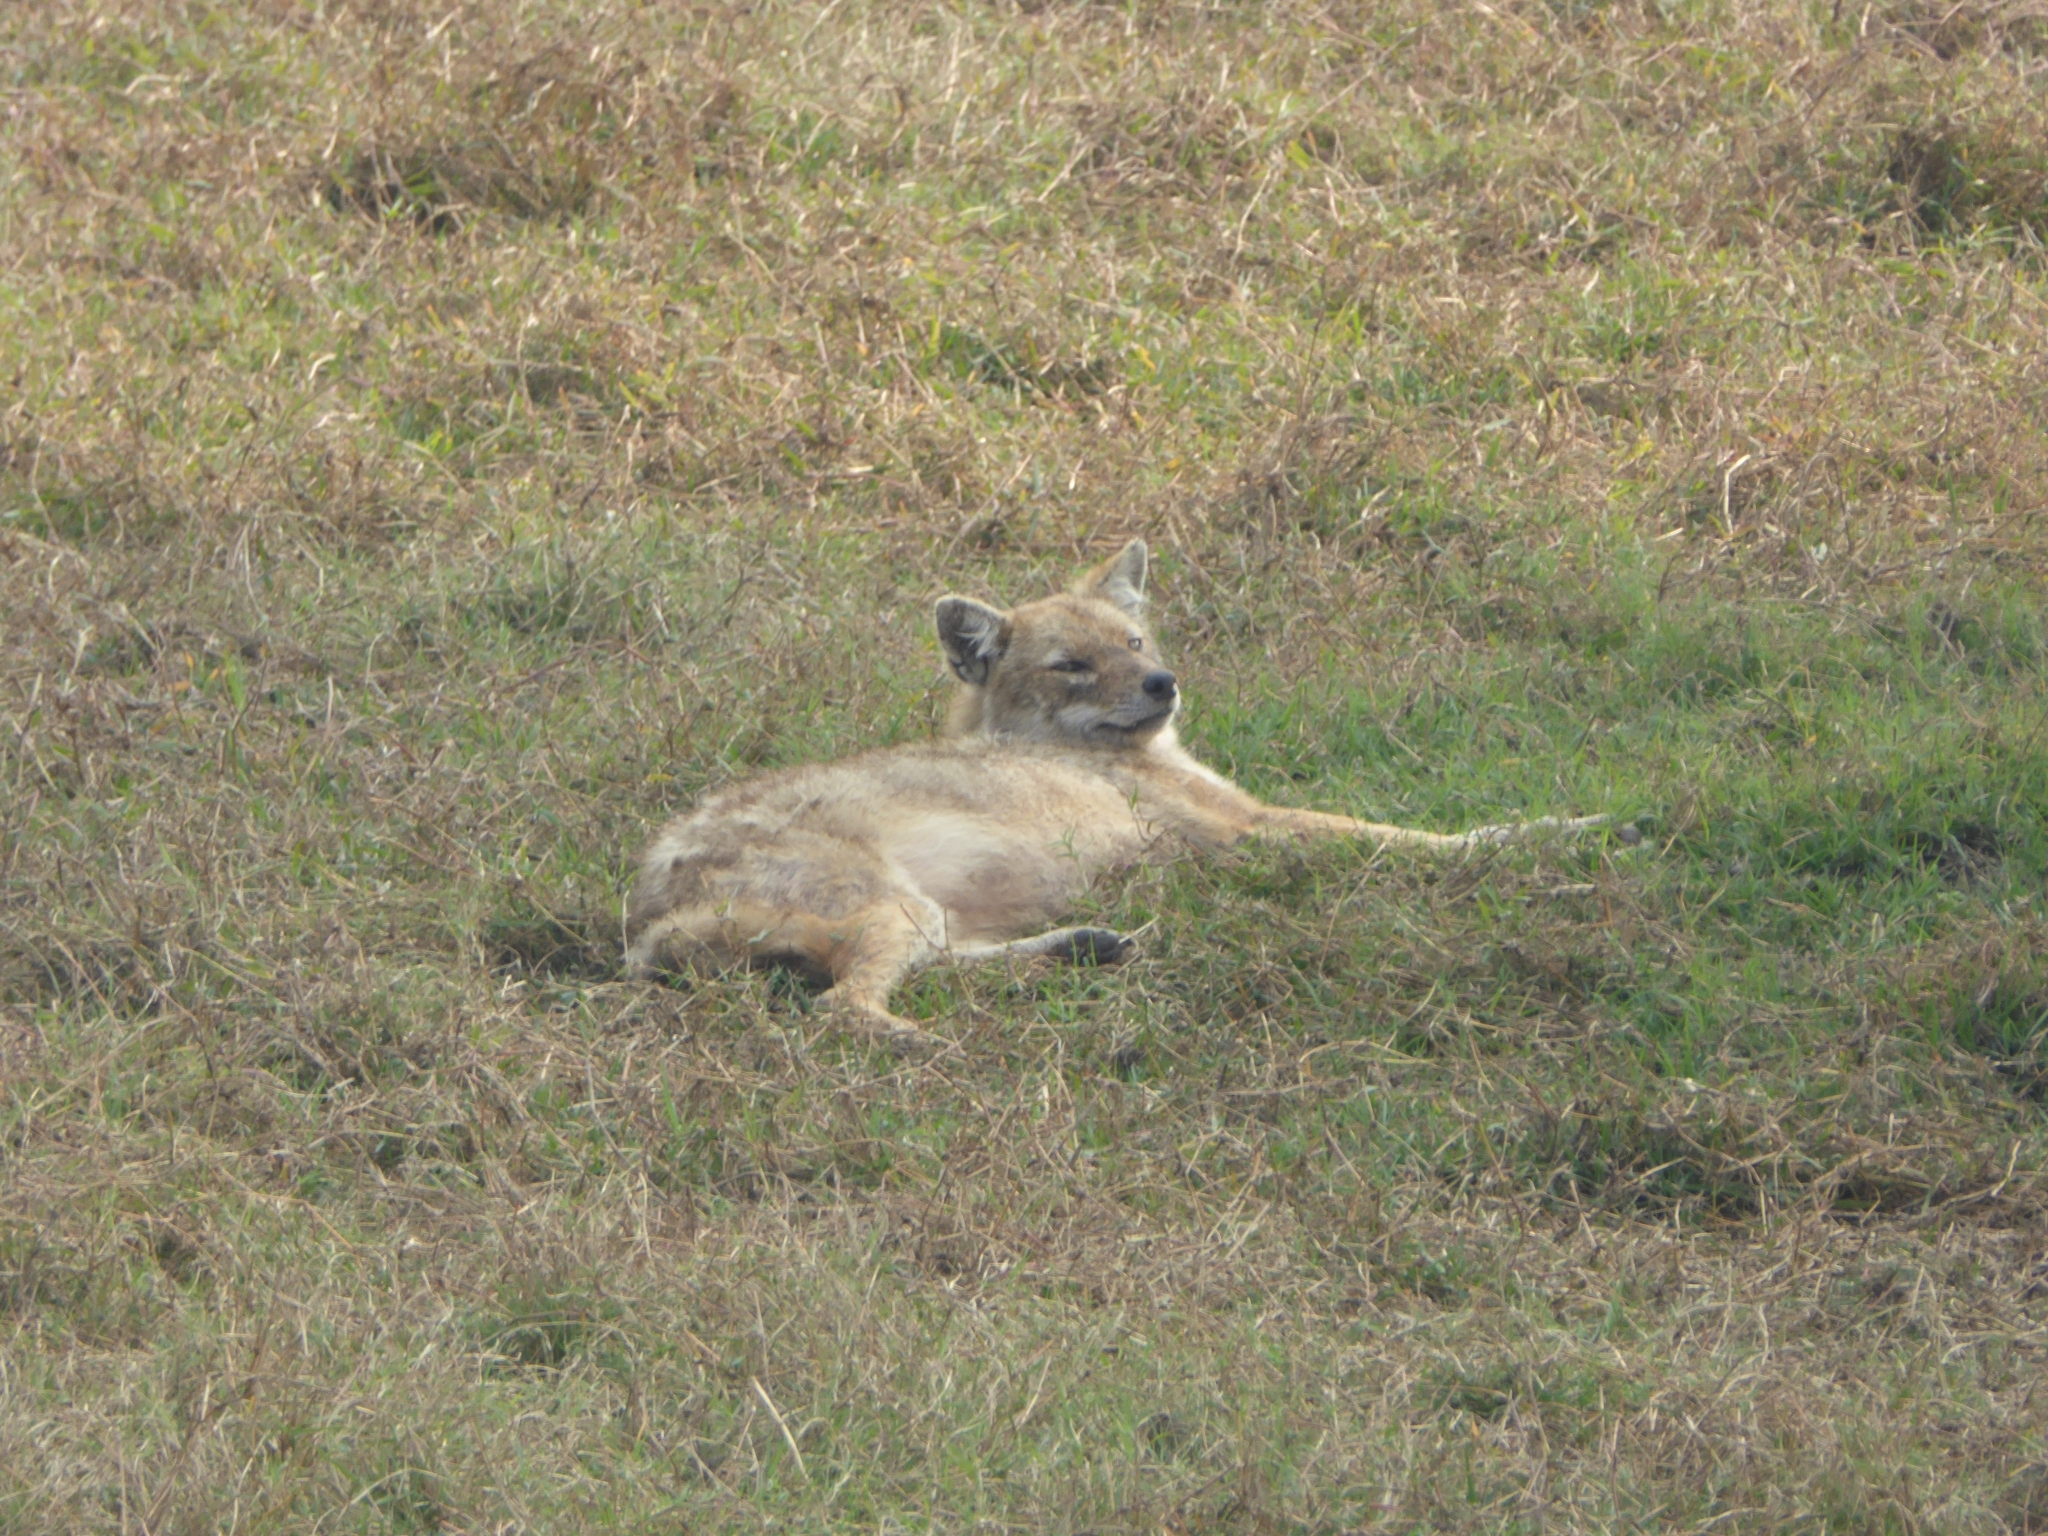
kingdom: Animalia
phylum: Chordata
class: Mammalia
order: Carnivora
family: Canidae
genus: Canis
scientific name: Canis aureus
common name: Golden jackal
